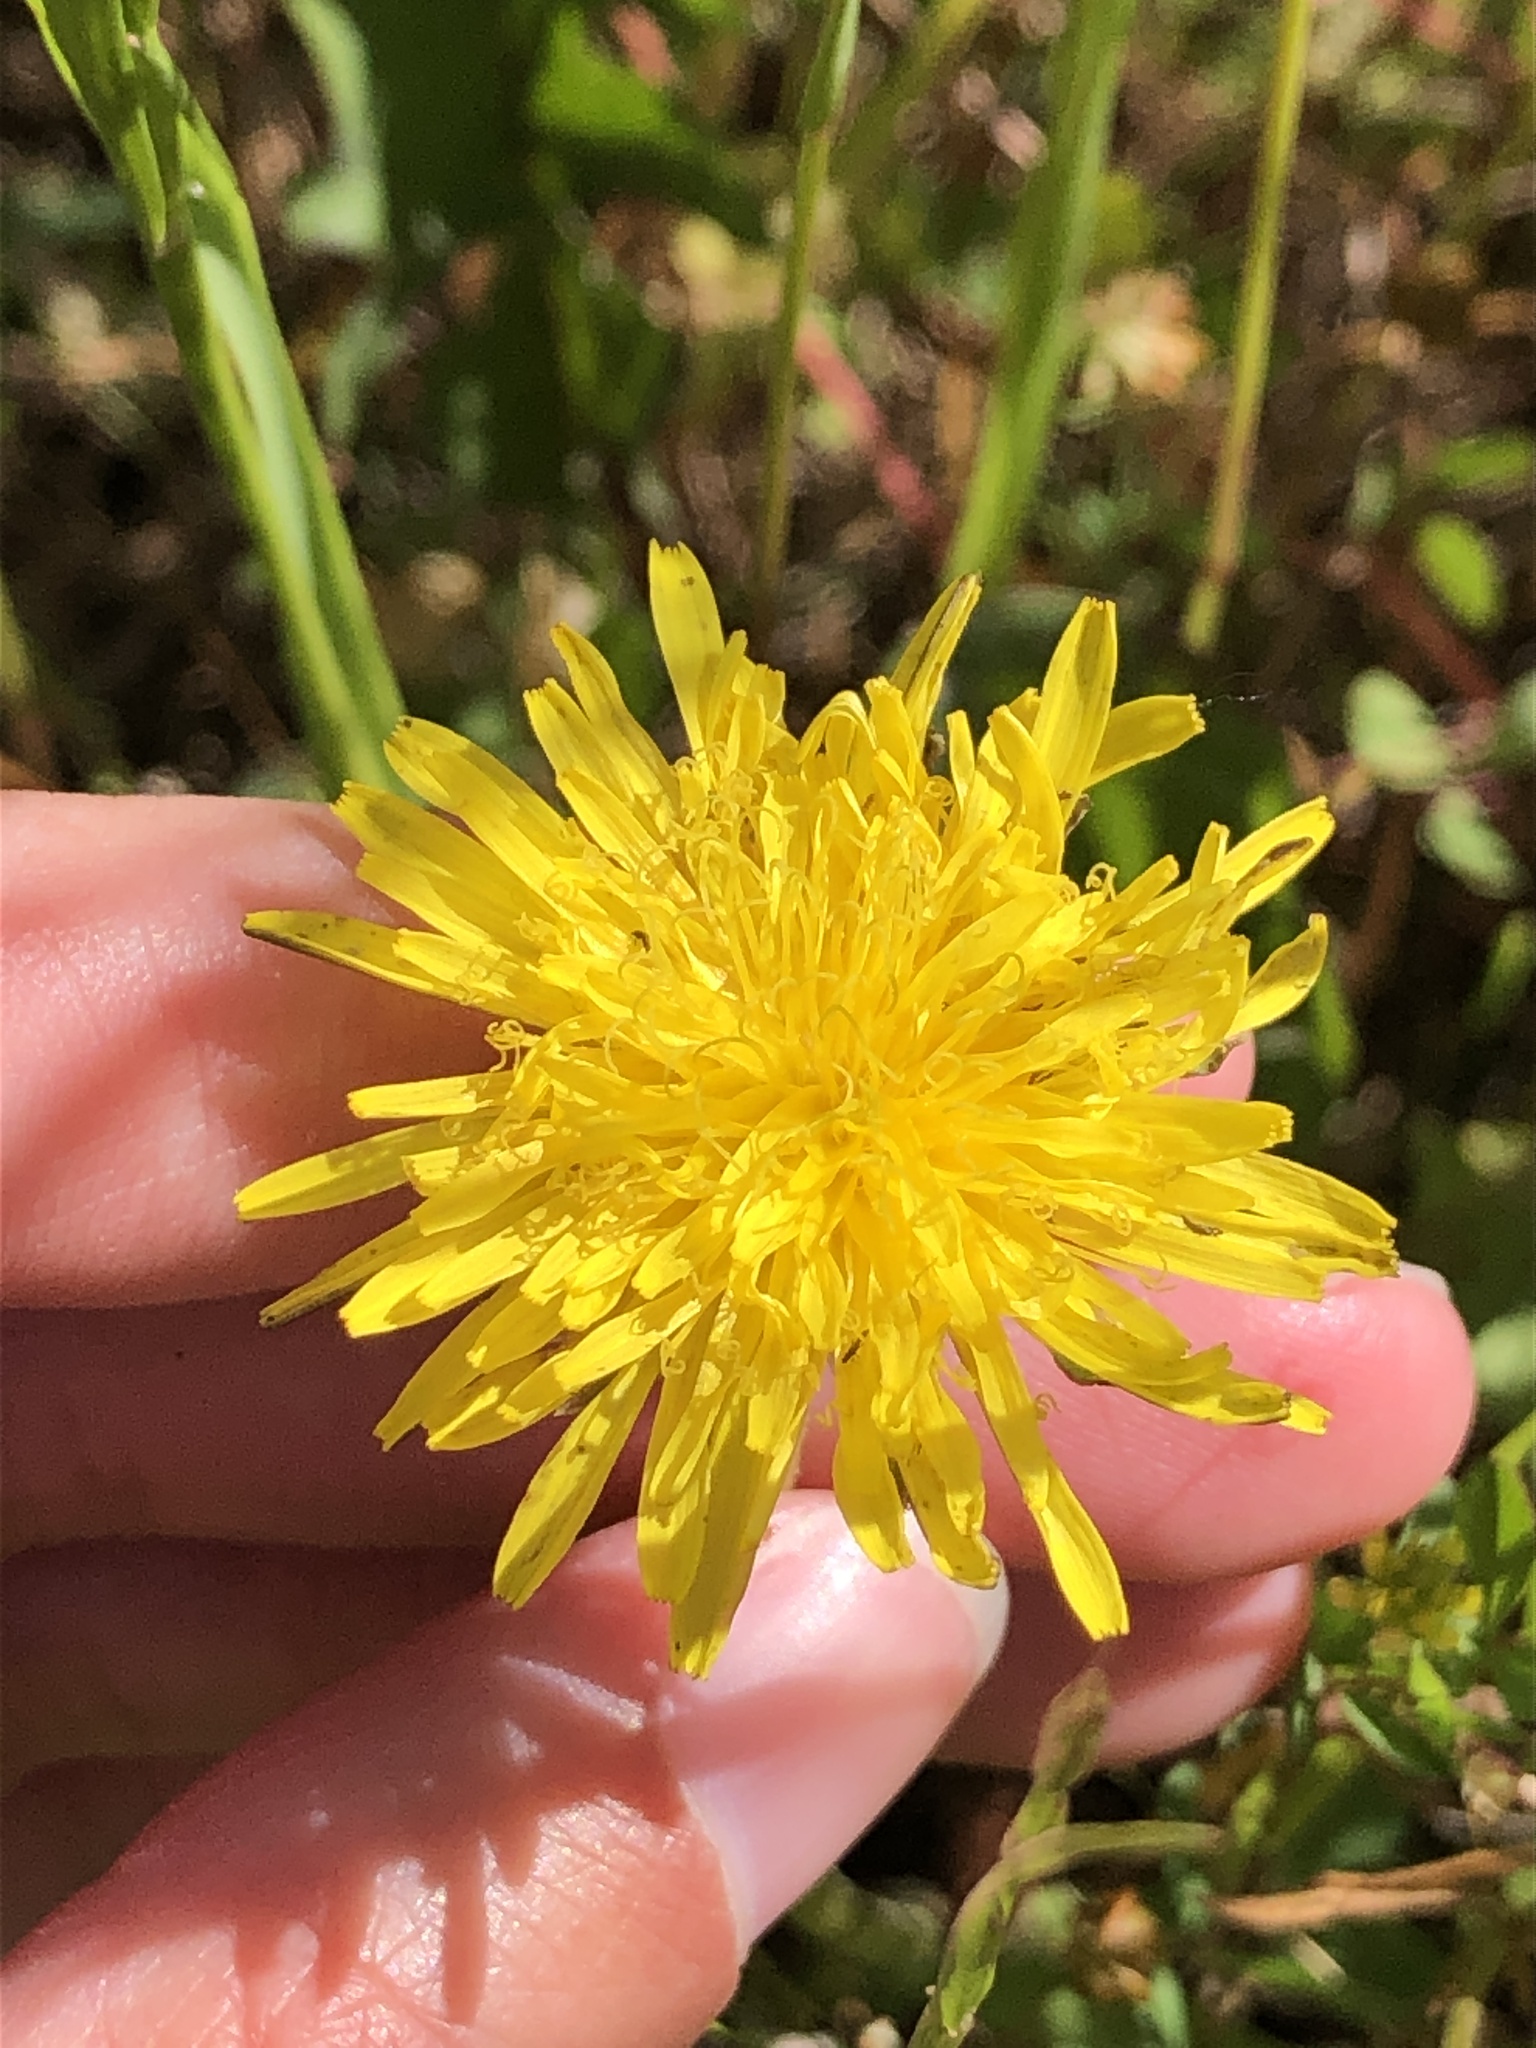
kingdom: Plantae
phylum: Tracheophyta
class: Magnoliopsida
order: Asterales
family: Asteraceae
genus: Taraxacum
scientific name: Taraxacum officinale
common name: Common dandelion
